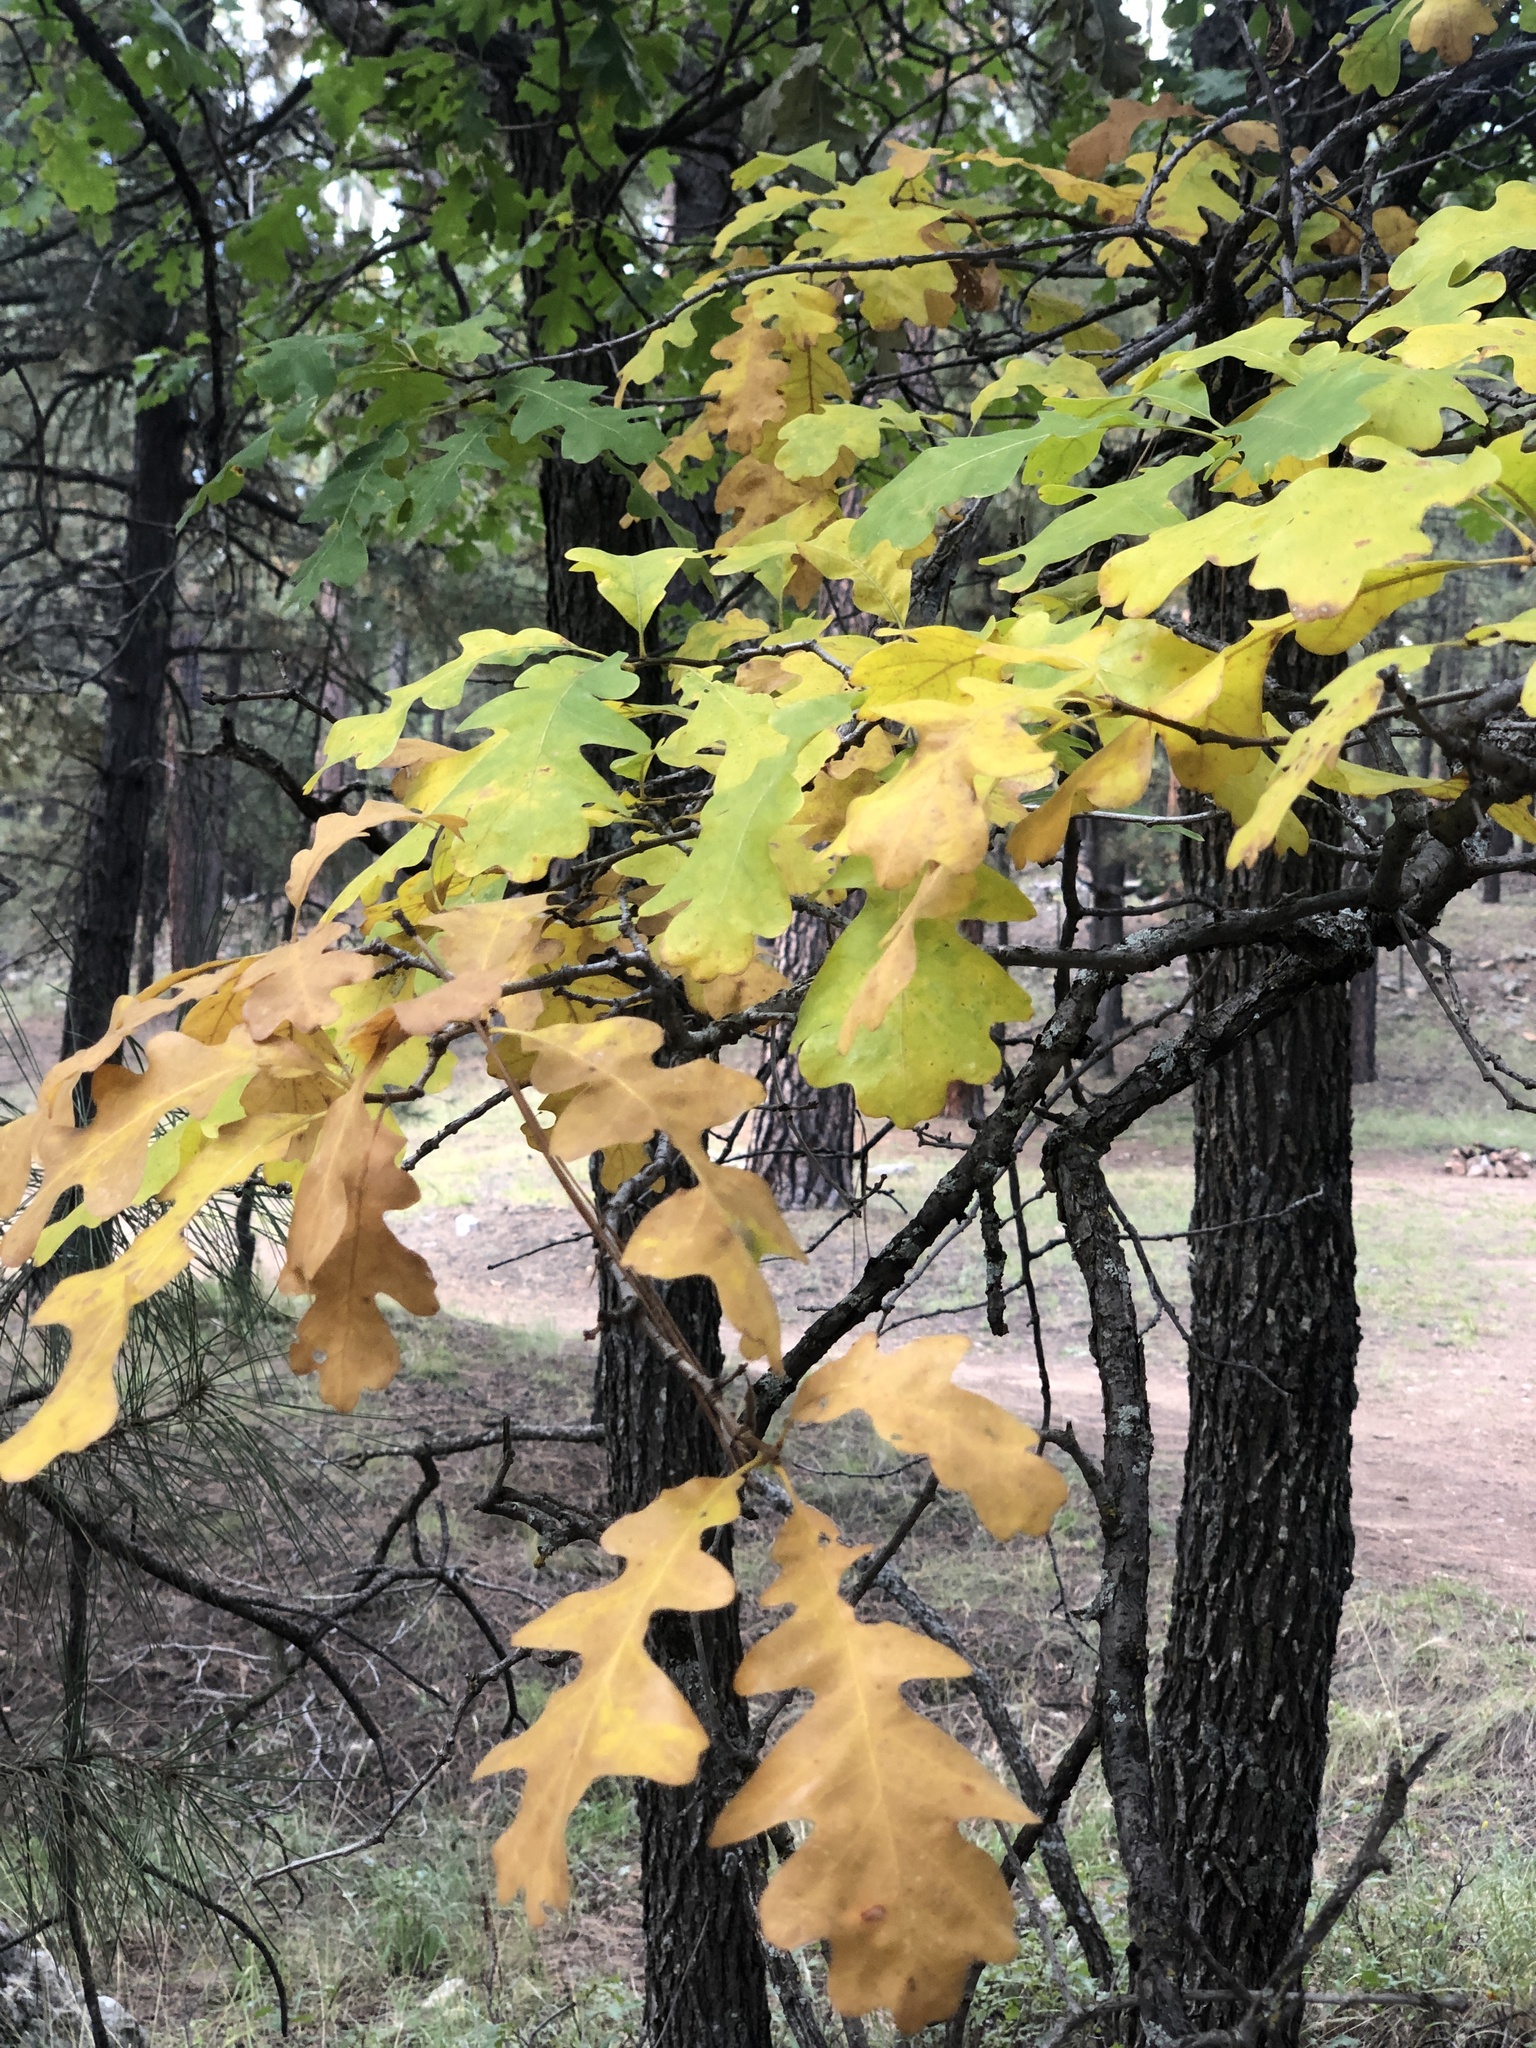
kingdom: Plantae
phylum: Tracheophyta
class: Magnoliopsida
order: Fagales
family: Fagaceae
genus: Quercus
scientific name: Quercus gambelii
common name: Gambel oak
